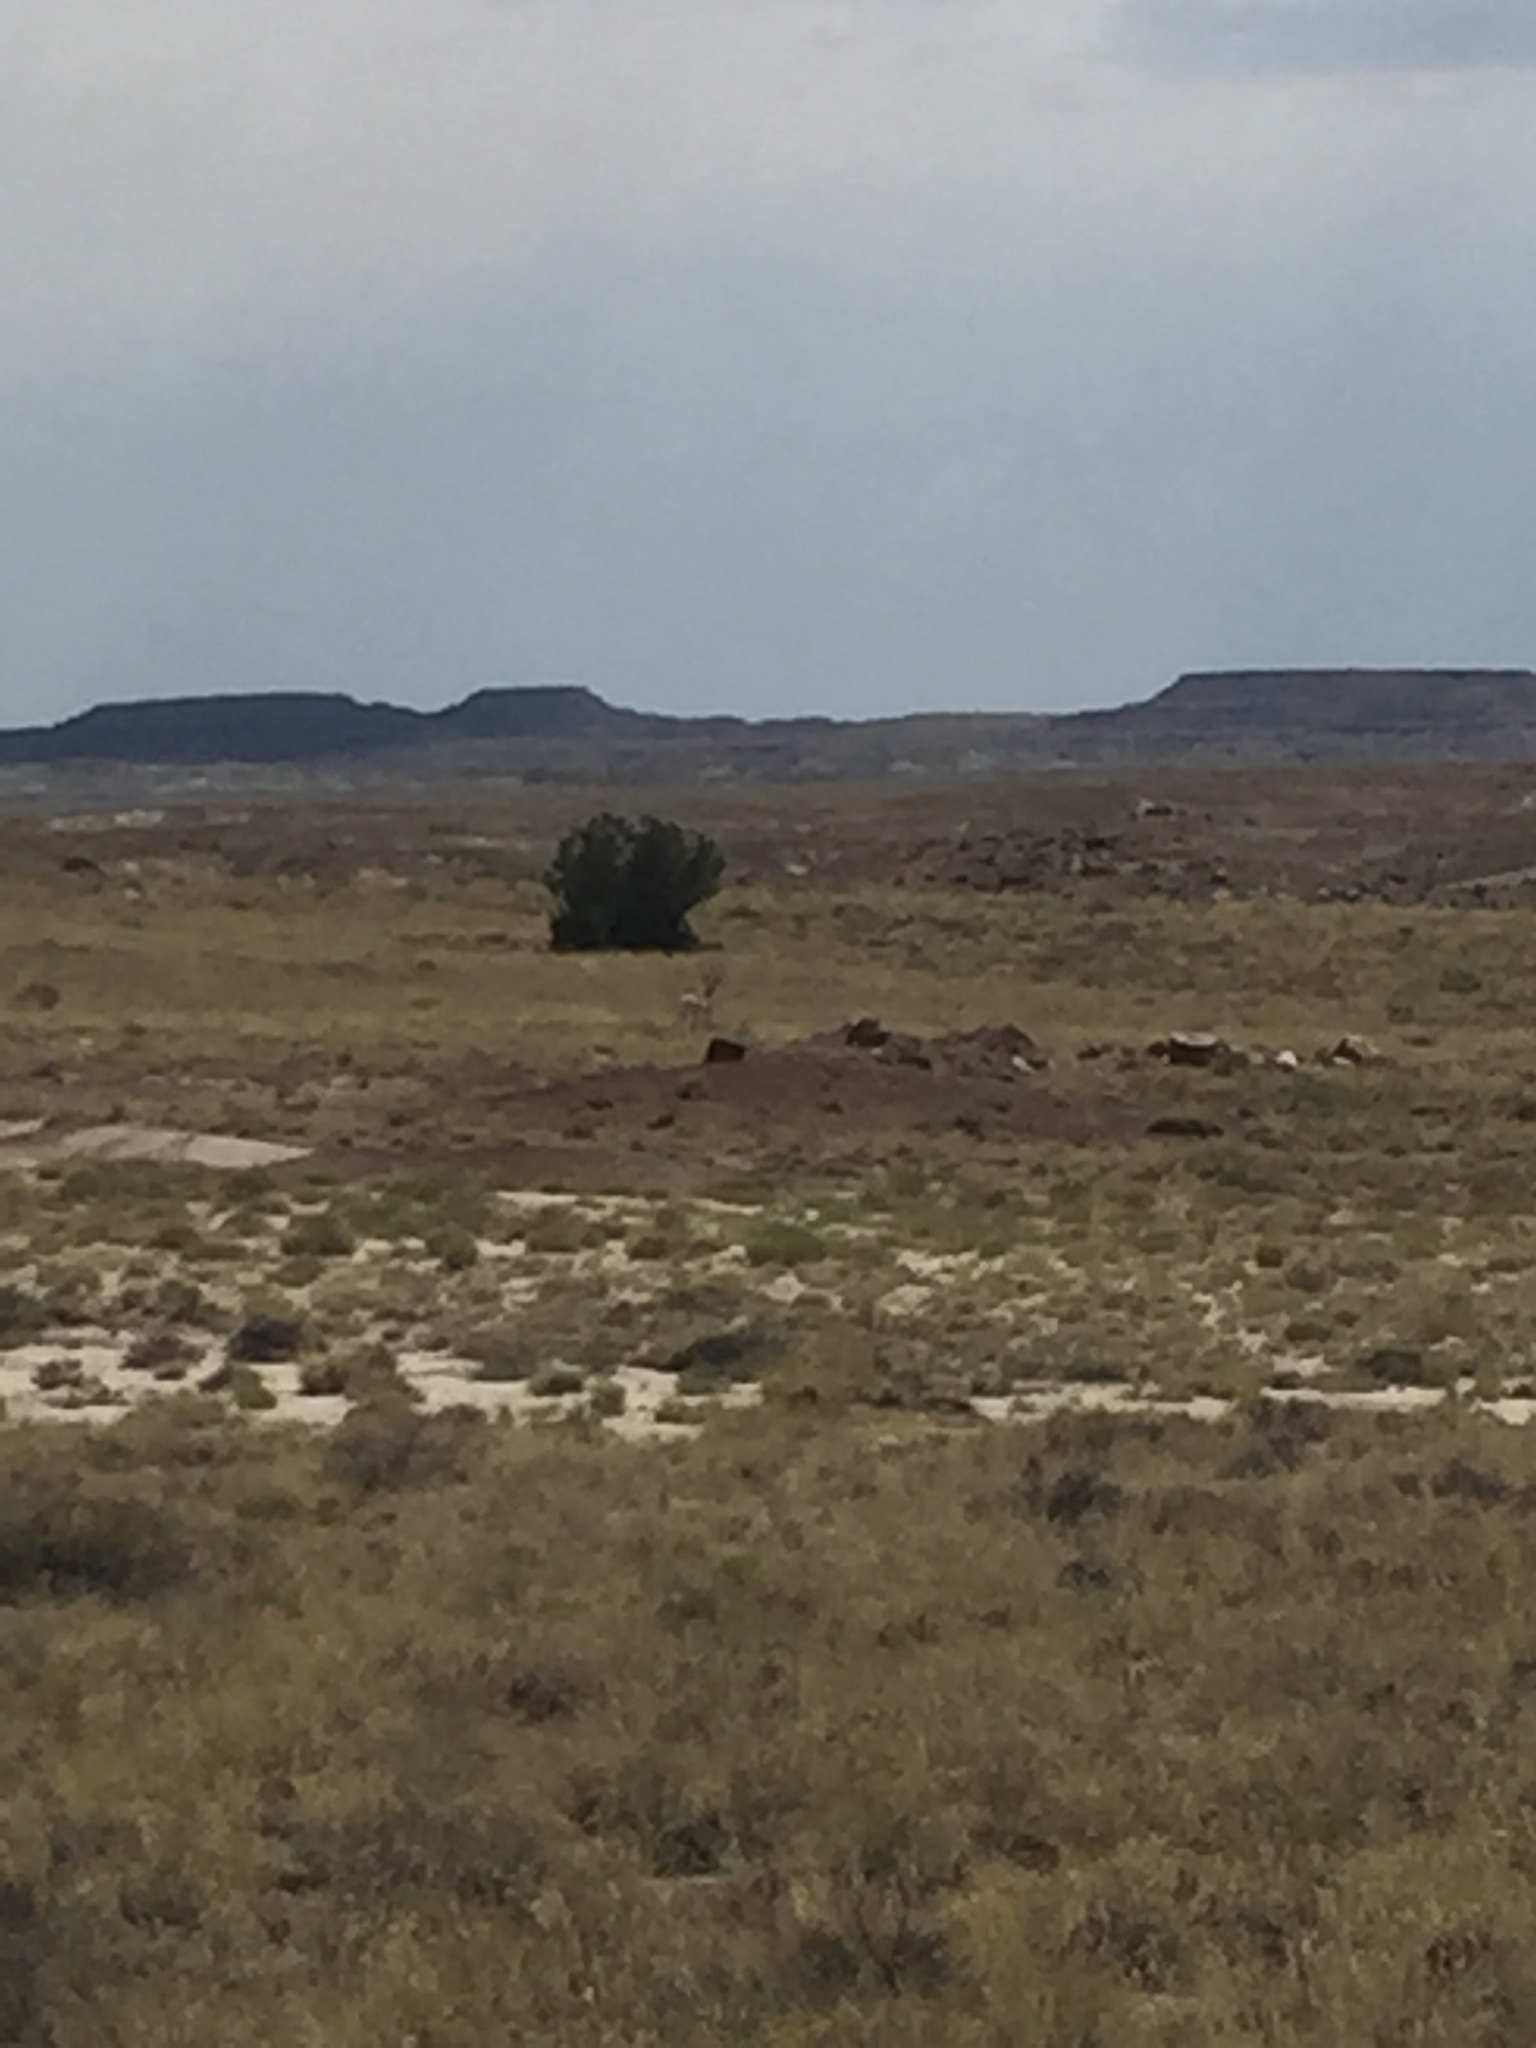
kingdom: Animalia
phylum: Chordata
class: Mammalia
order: Artiodactyla
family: Antilocapridae
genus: Antilocapra
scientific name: Antilocapra americana
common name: Pronghorn
